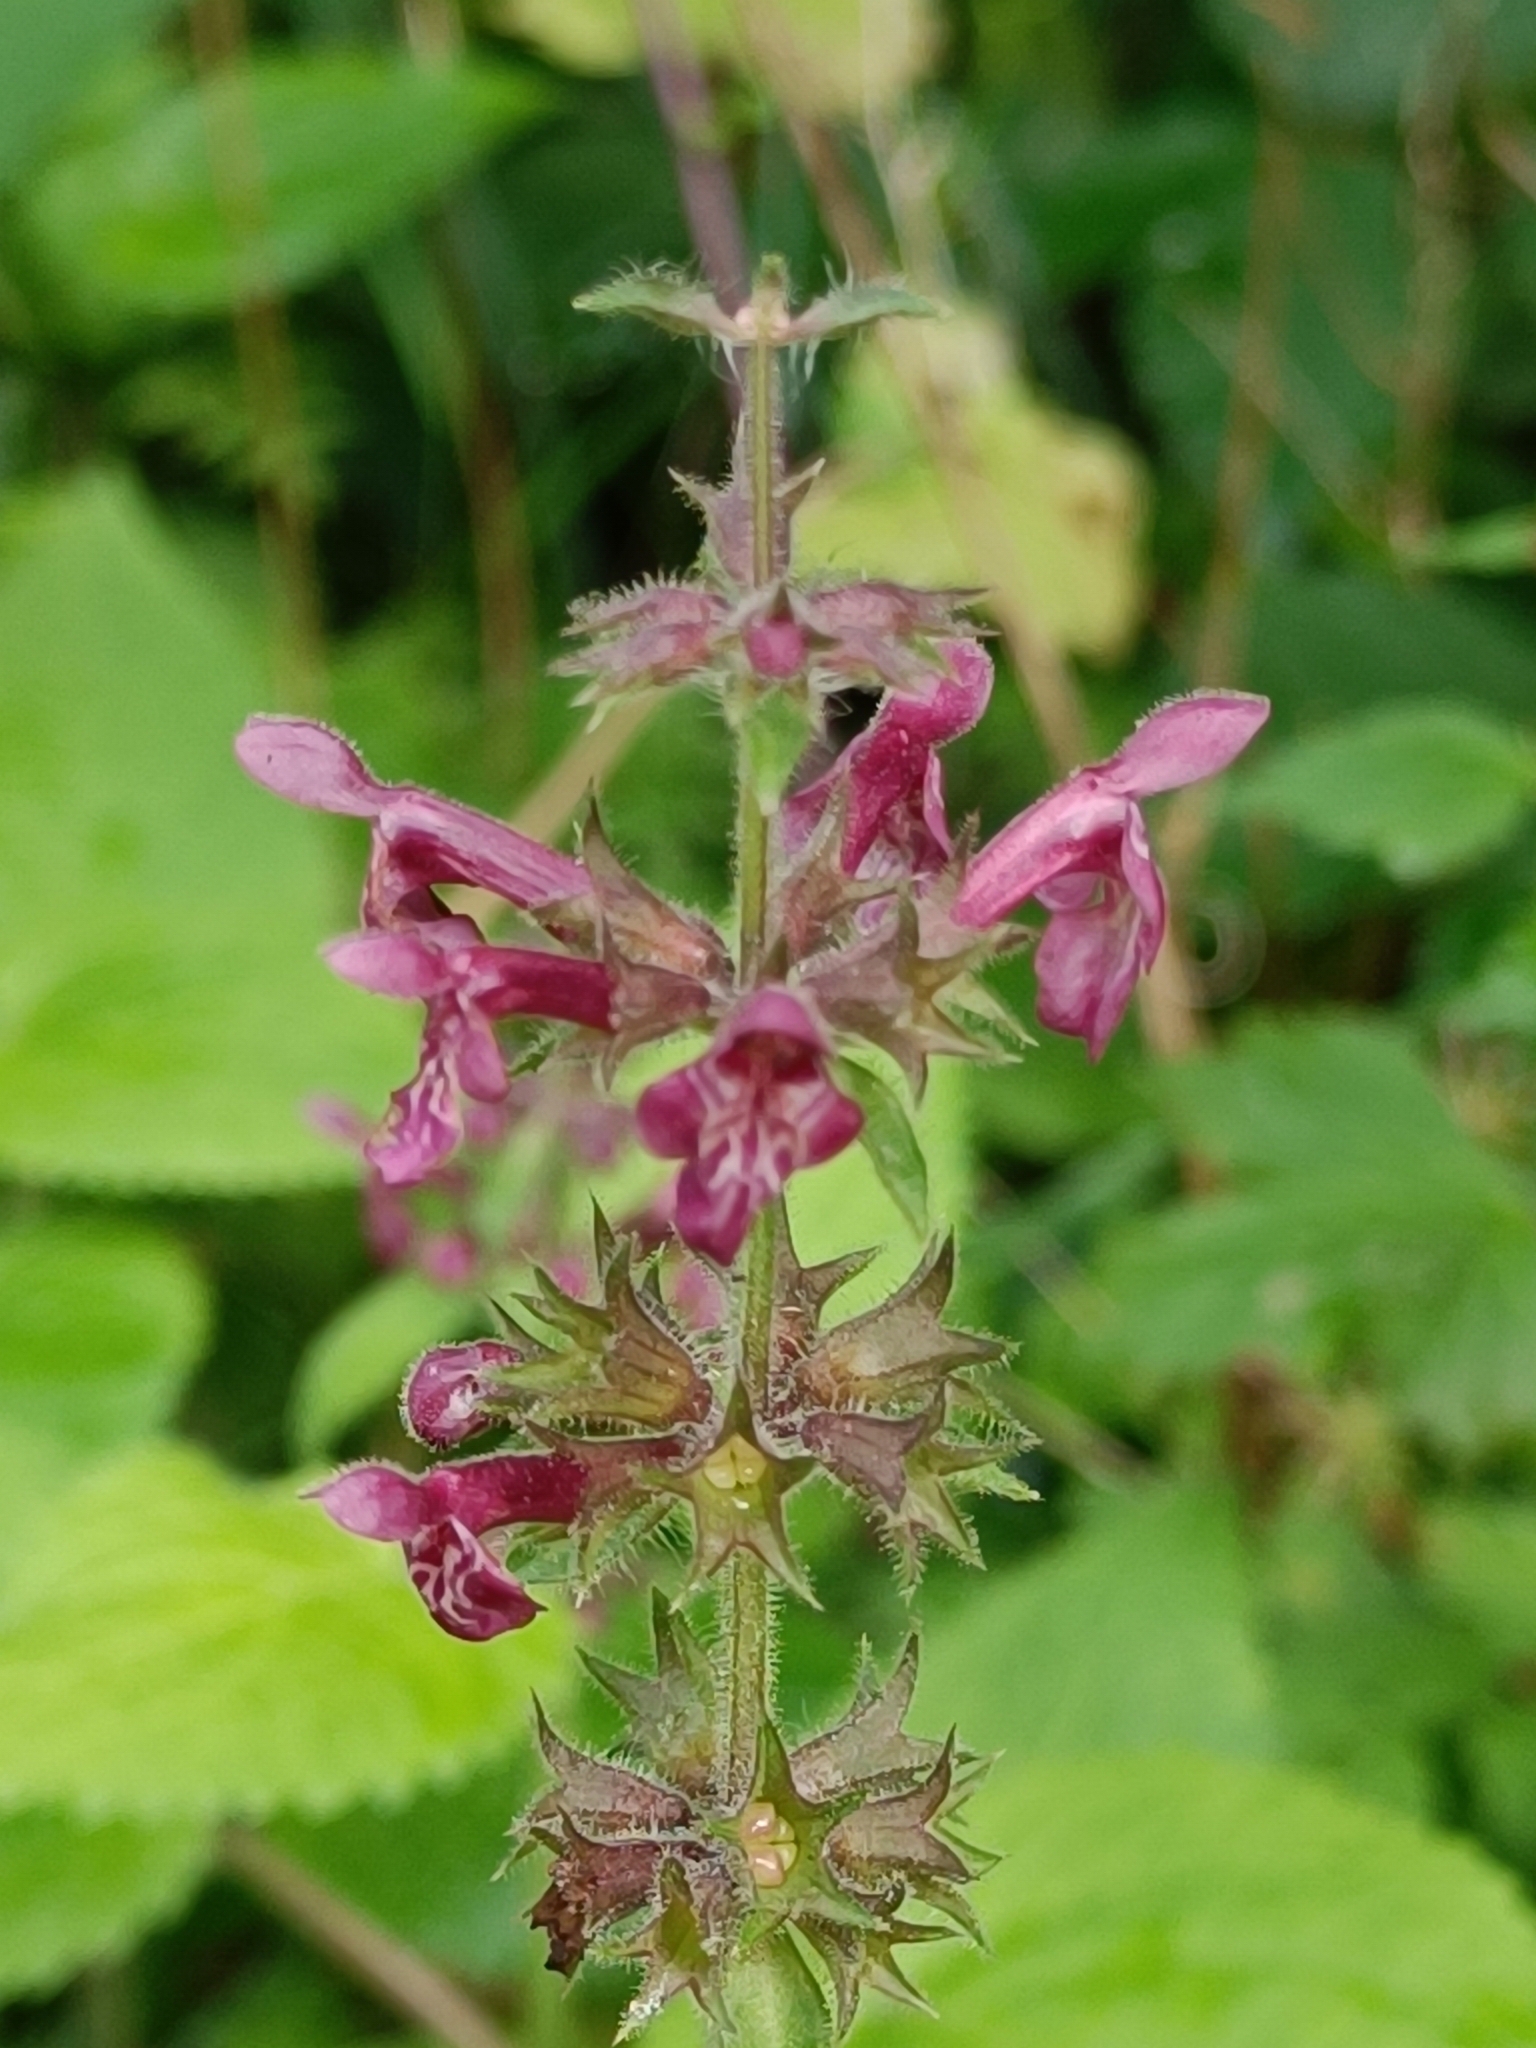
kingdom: Plantae
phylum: Tracheophyta
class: Magnoliopsida
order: Lamiales
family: Lamiaceae
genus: Stachys
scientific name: Stachys sylvatica
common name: Hedge woundwort
